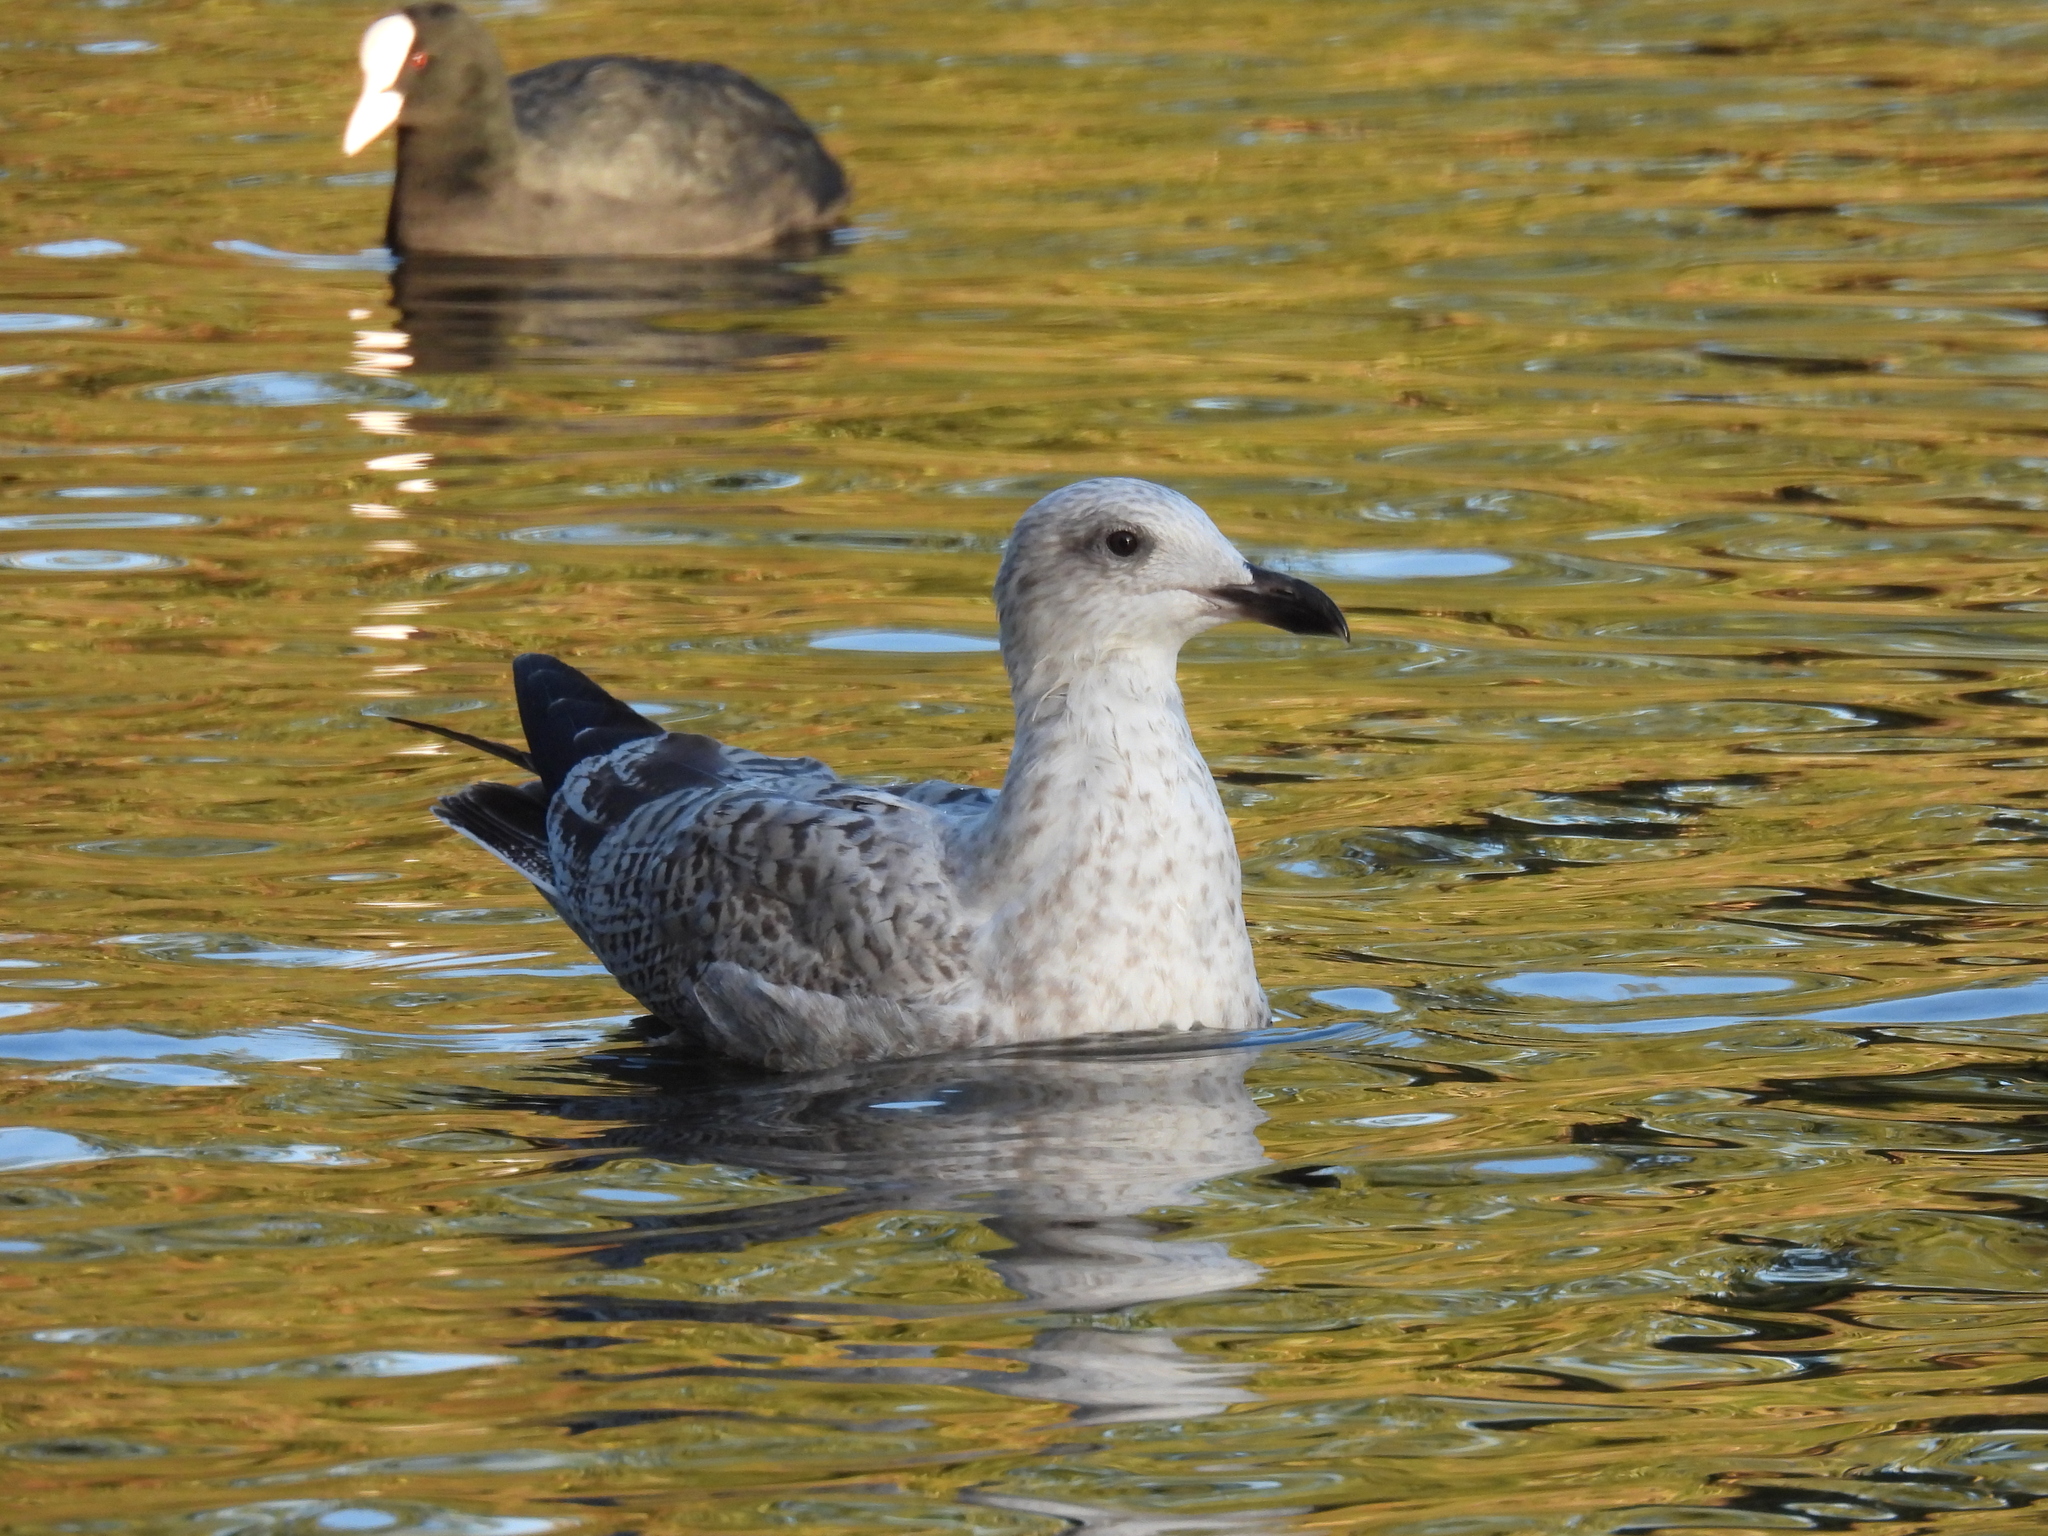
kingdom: Animalia
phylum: Chordata
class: Aves
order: Charadriiformes
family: Laridae
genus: Larus
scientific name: Larus argentatus
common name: Herring gull
